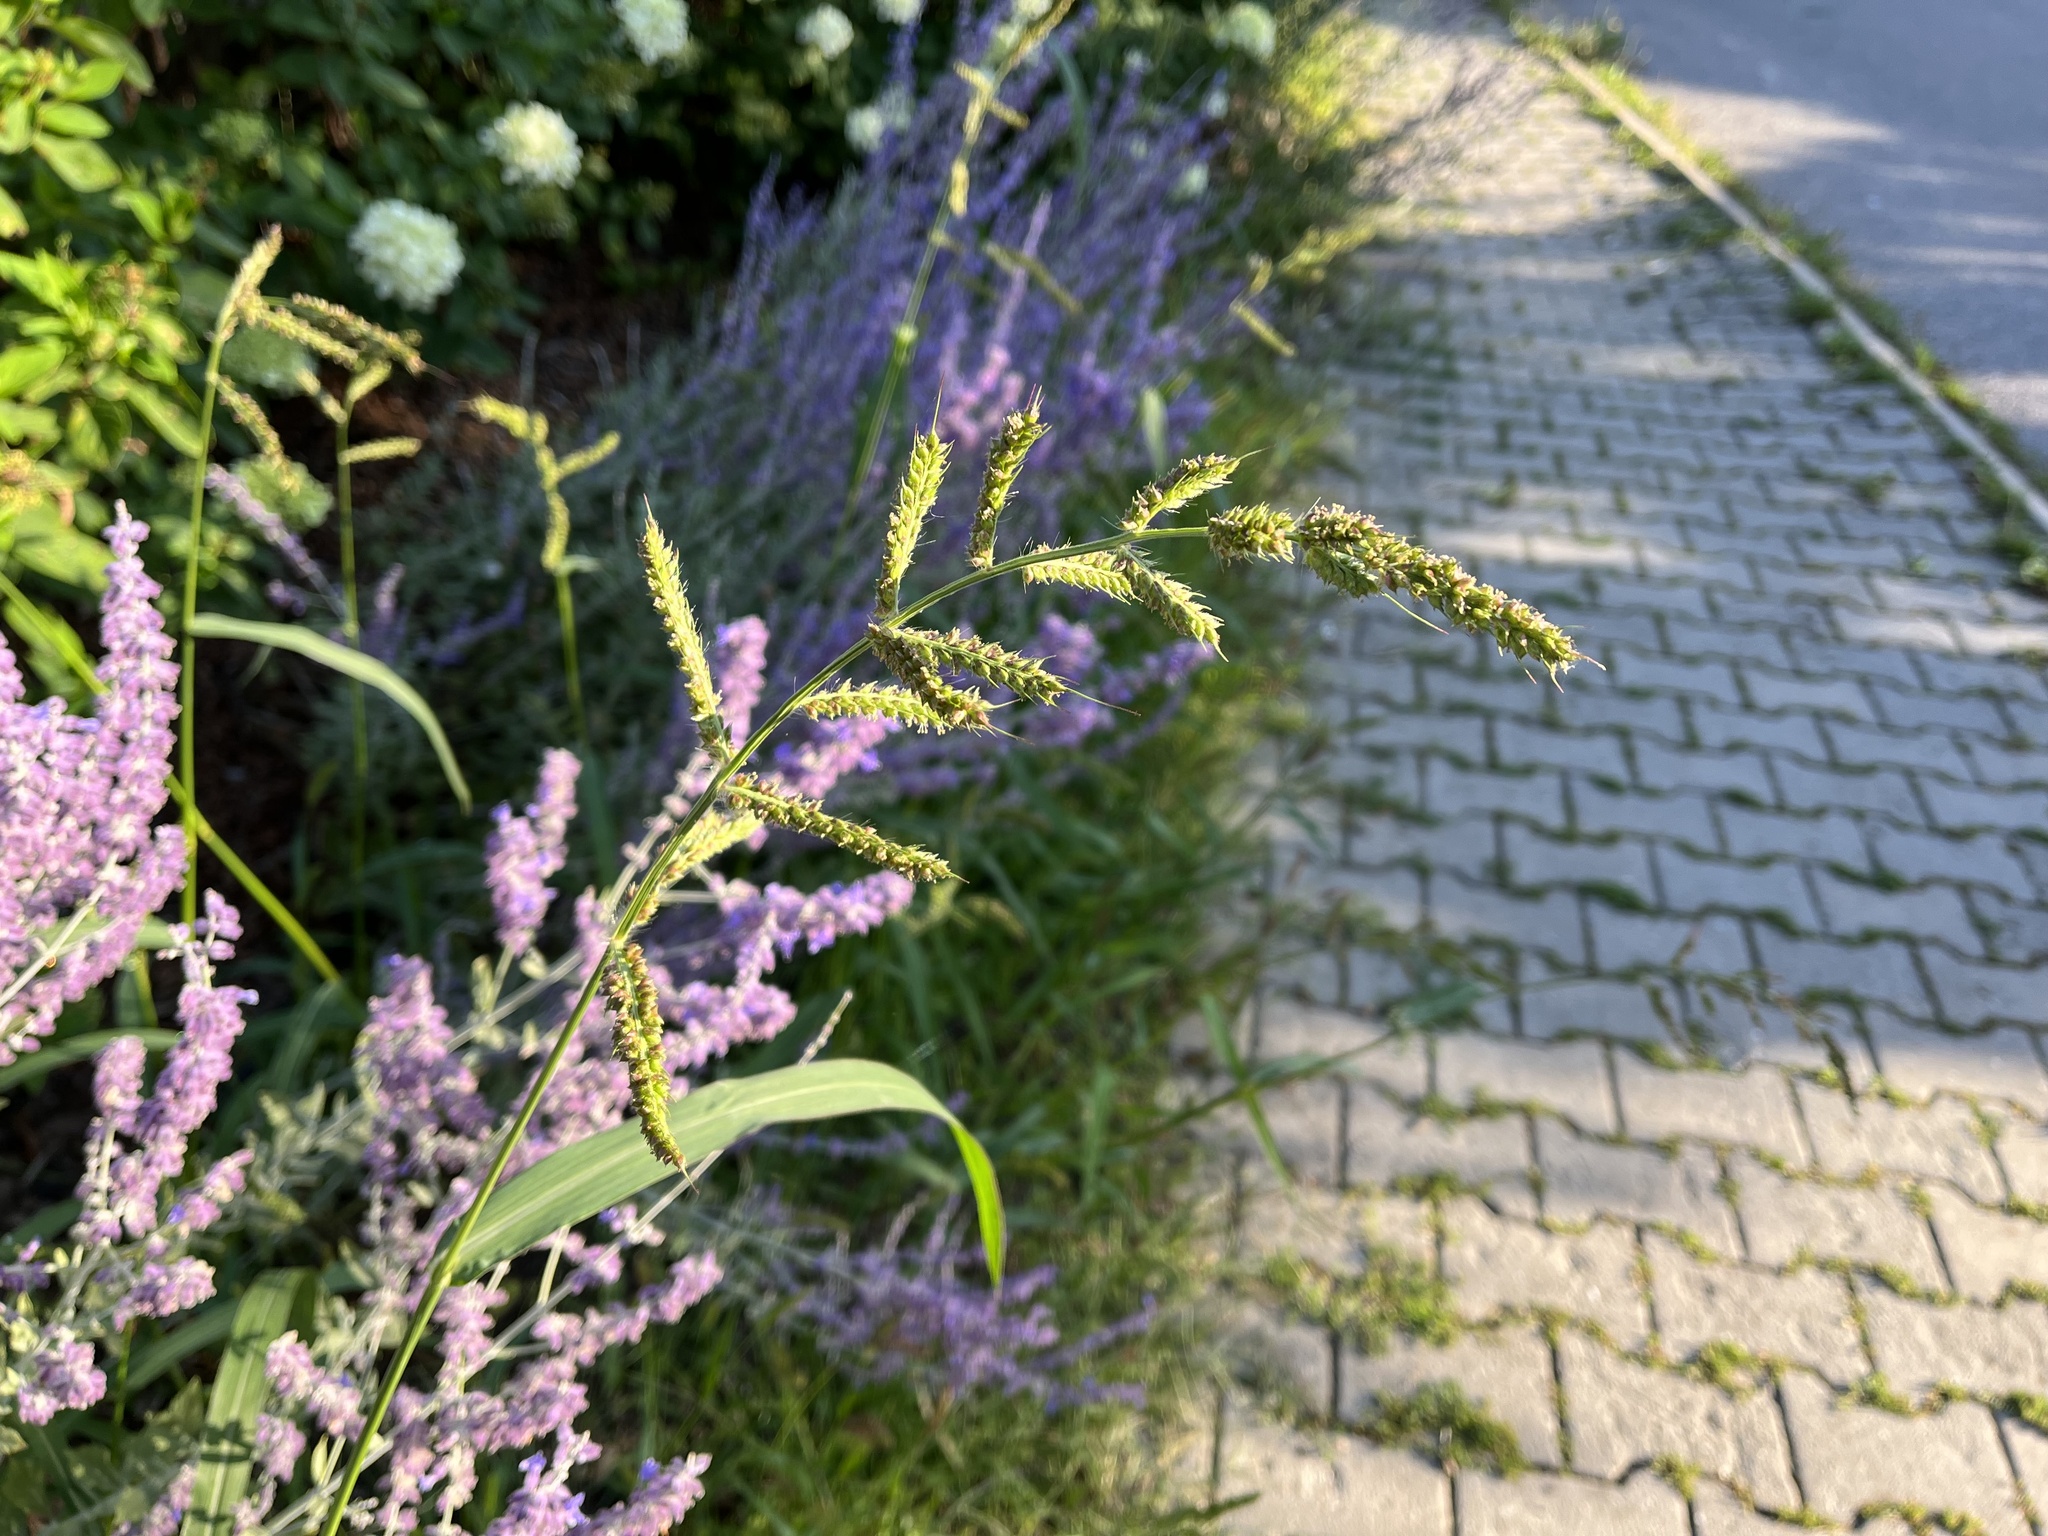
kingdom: Plantae
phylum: Tracheophyta
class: Liliopsida
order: Poales
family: Poaceae
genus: Echinochloa
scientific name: Echinochloa crus-galli
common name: Cockspur
